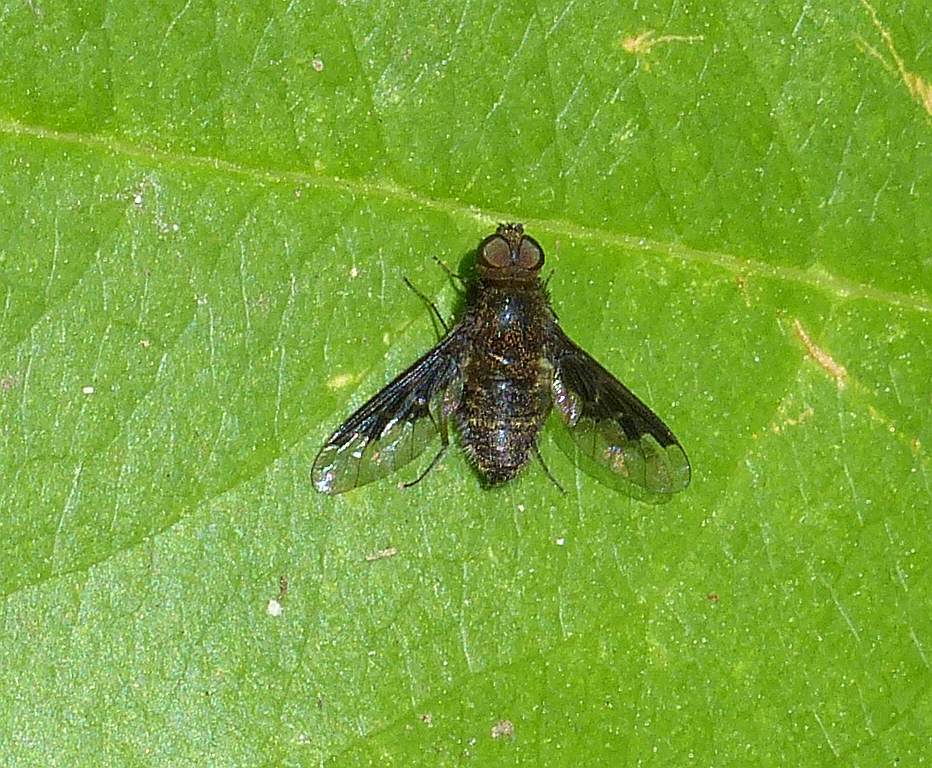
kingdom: Animalia
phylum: Arthropoda
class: Insecta
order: Diptera
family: Bombyliidae
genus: Hemipenthes
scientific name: Hemipenthes webberi
